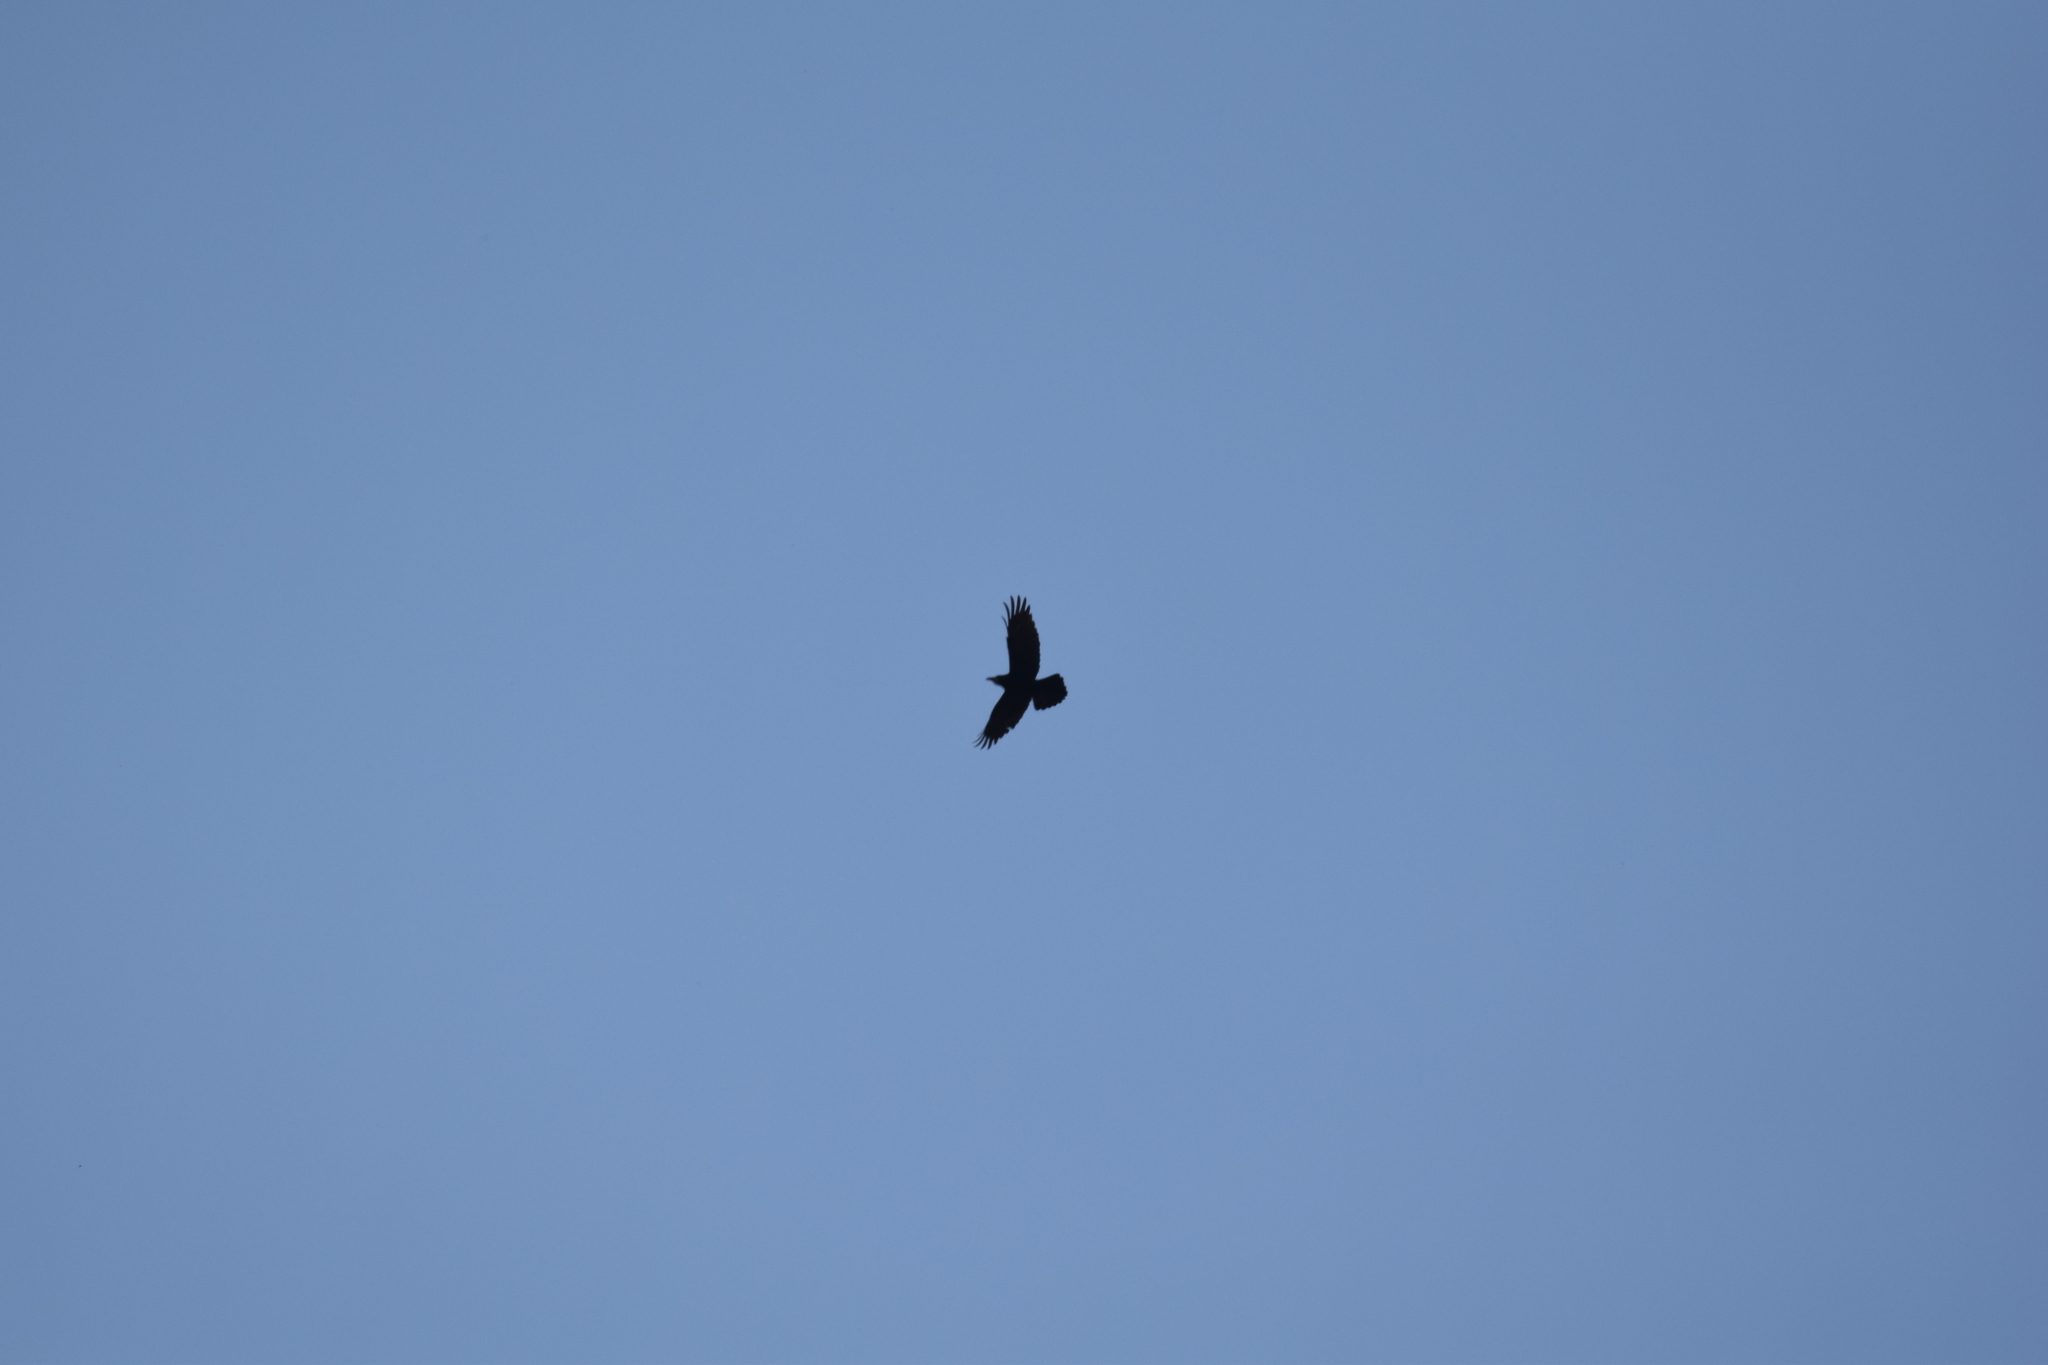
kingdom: Animalia
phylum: Chordata
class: Aves
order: Passeriformes
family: Corvidae
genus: Corvus
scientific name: Corvus corax
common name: Common raven
